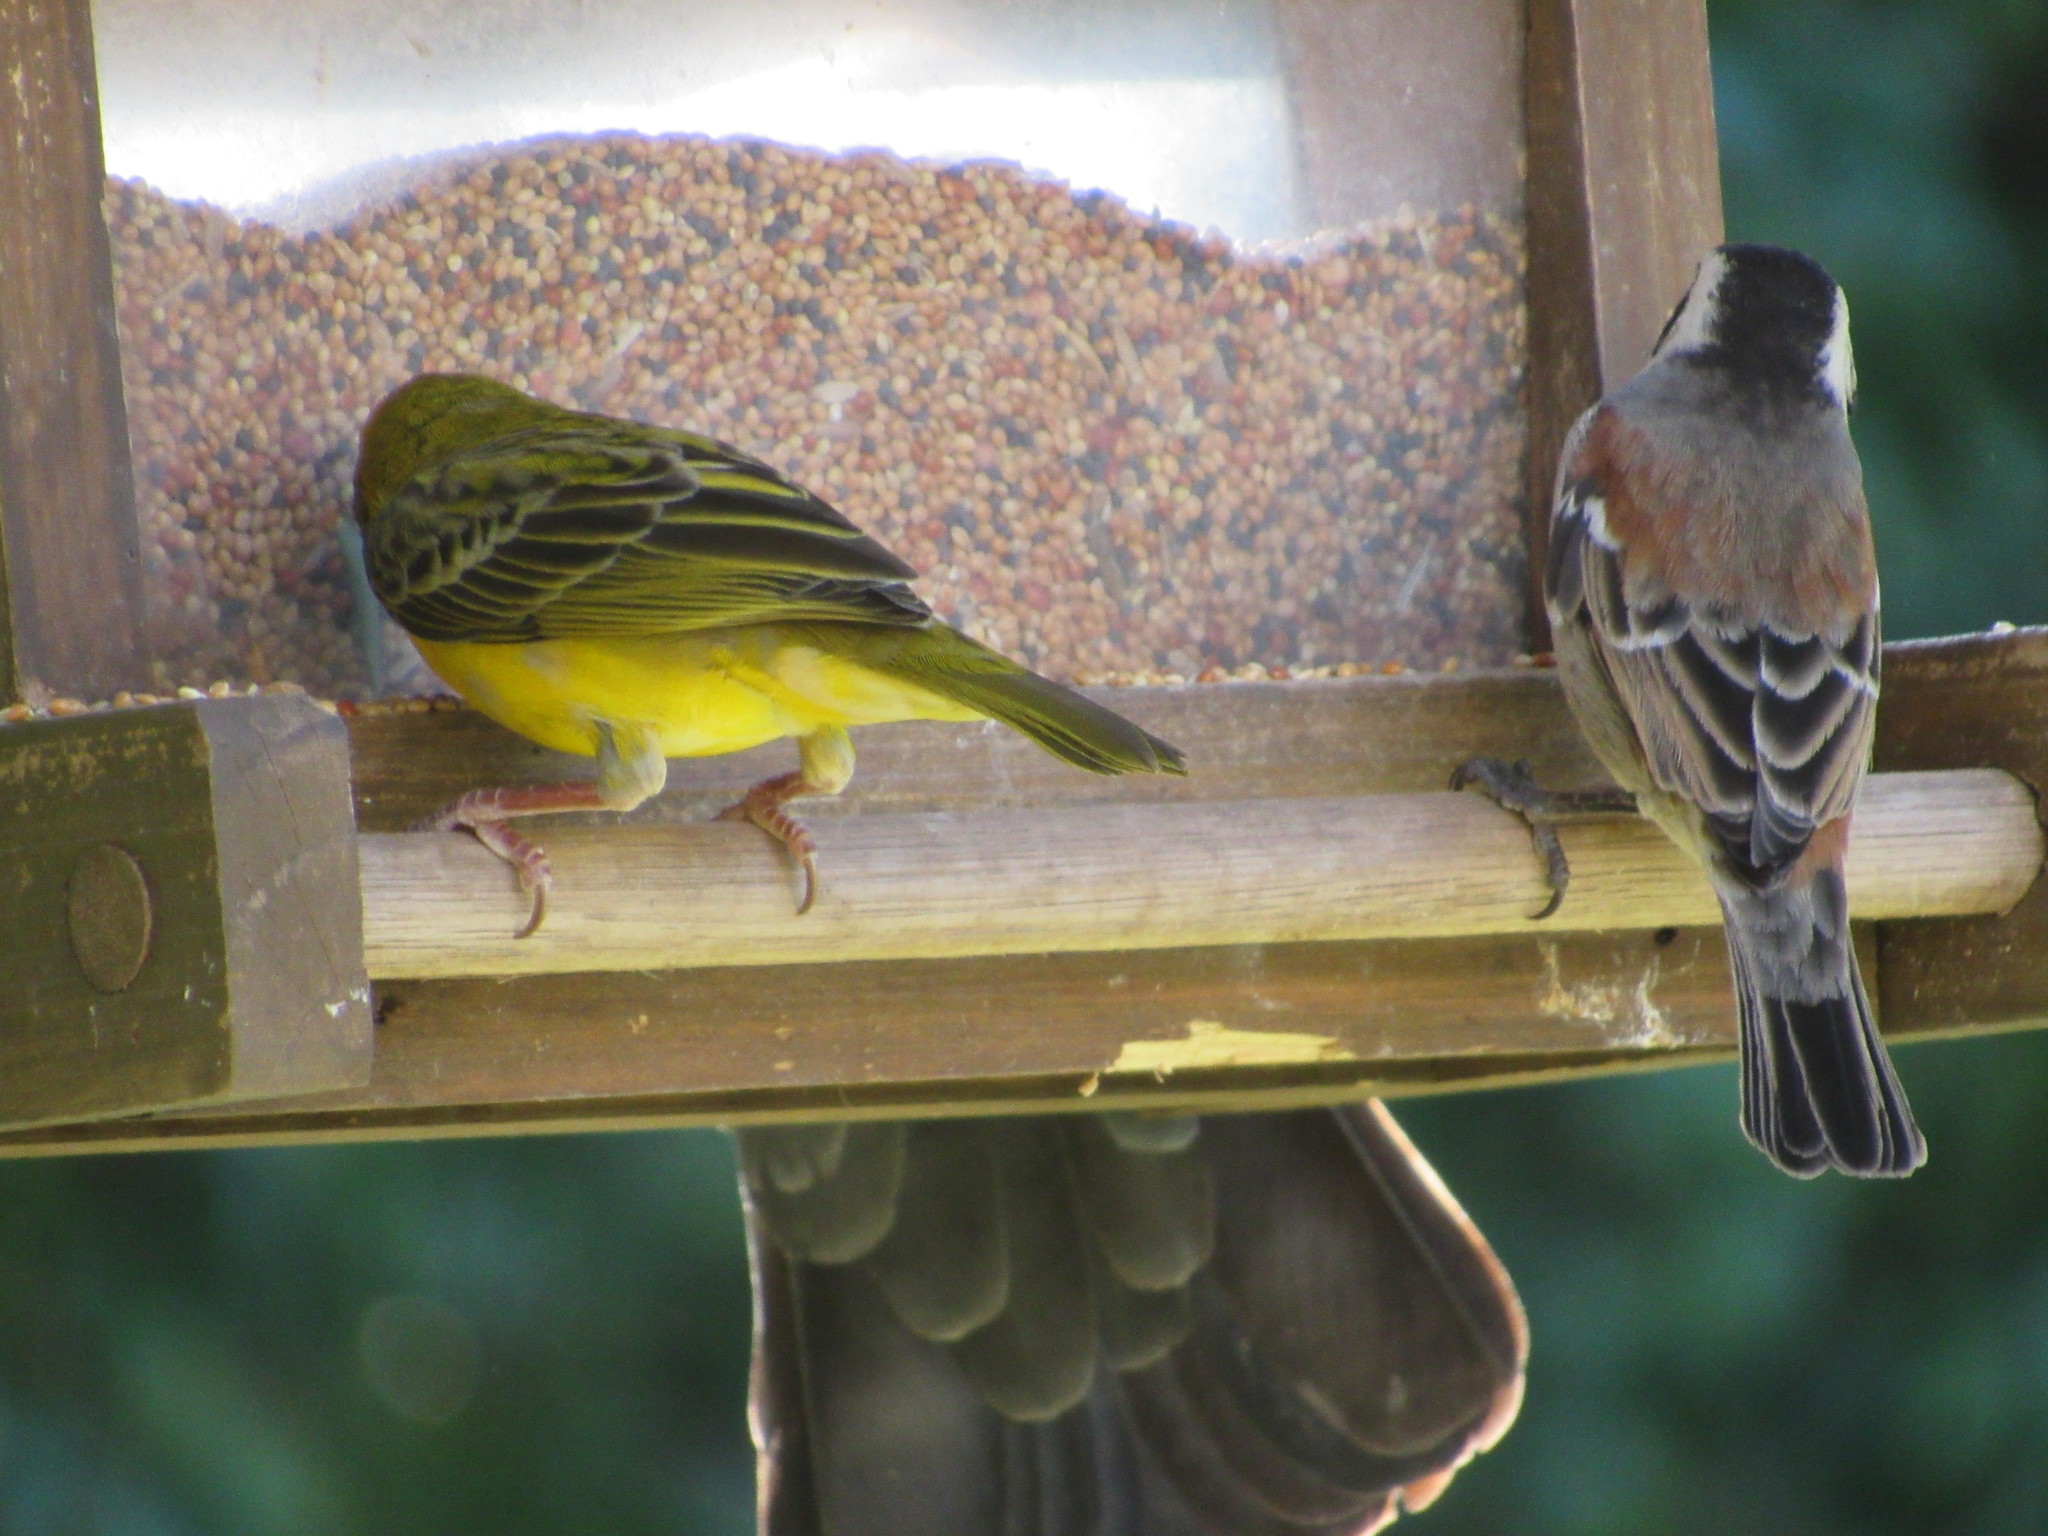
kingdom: Animalia
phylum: Chordata
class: Aves
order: Passeriformes
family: Passeridae
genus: Passer
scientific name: Passer melanurus
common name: Cape sparrow
